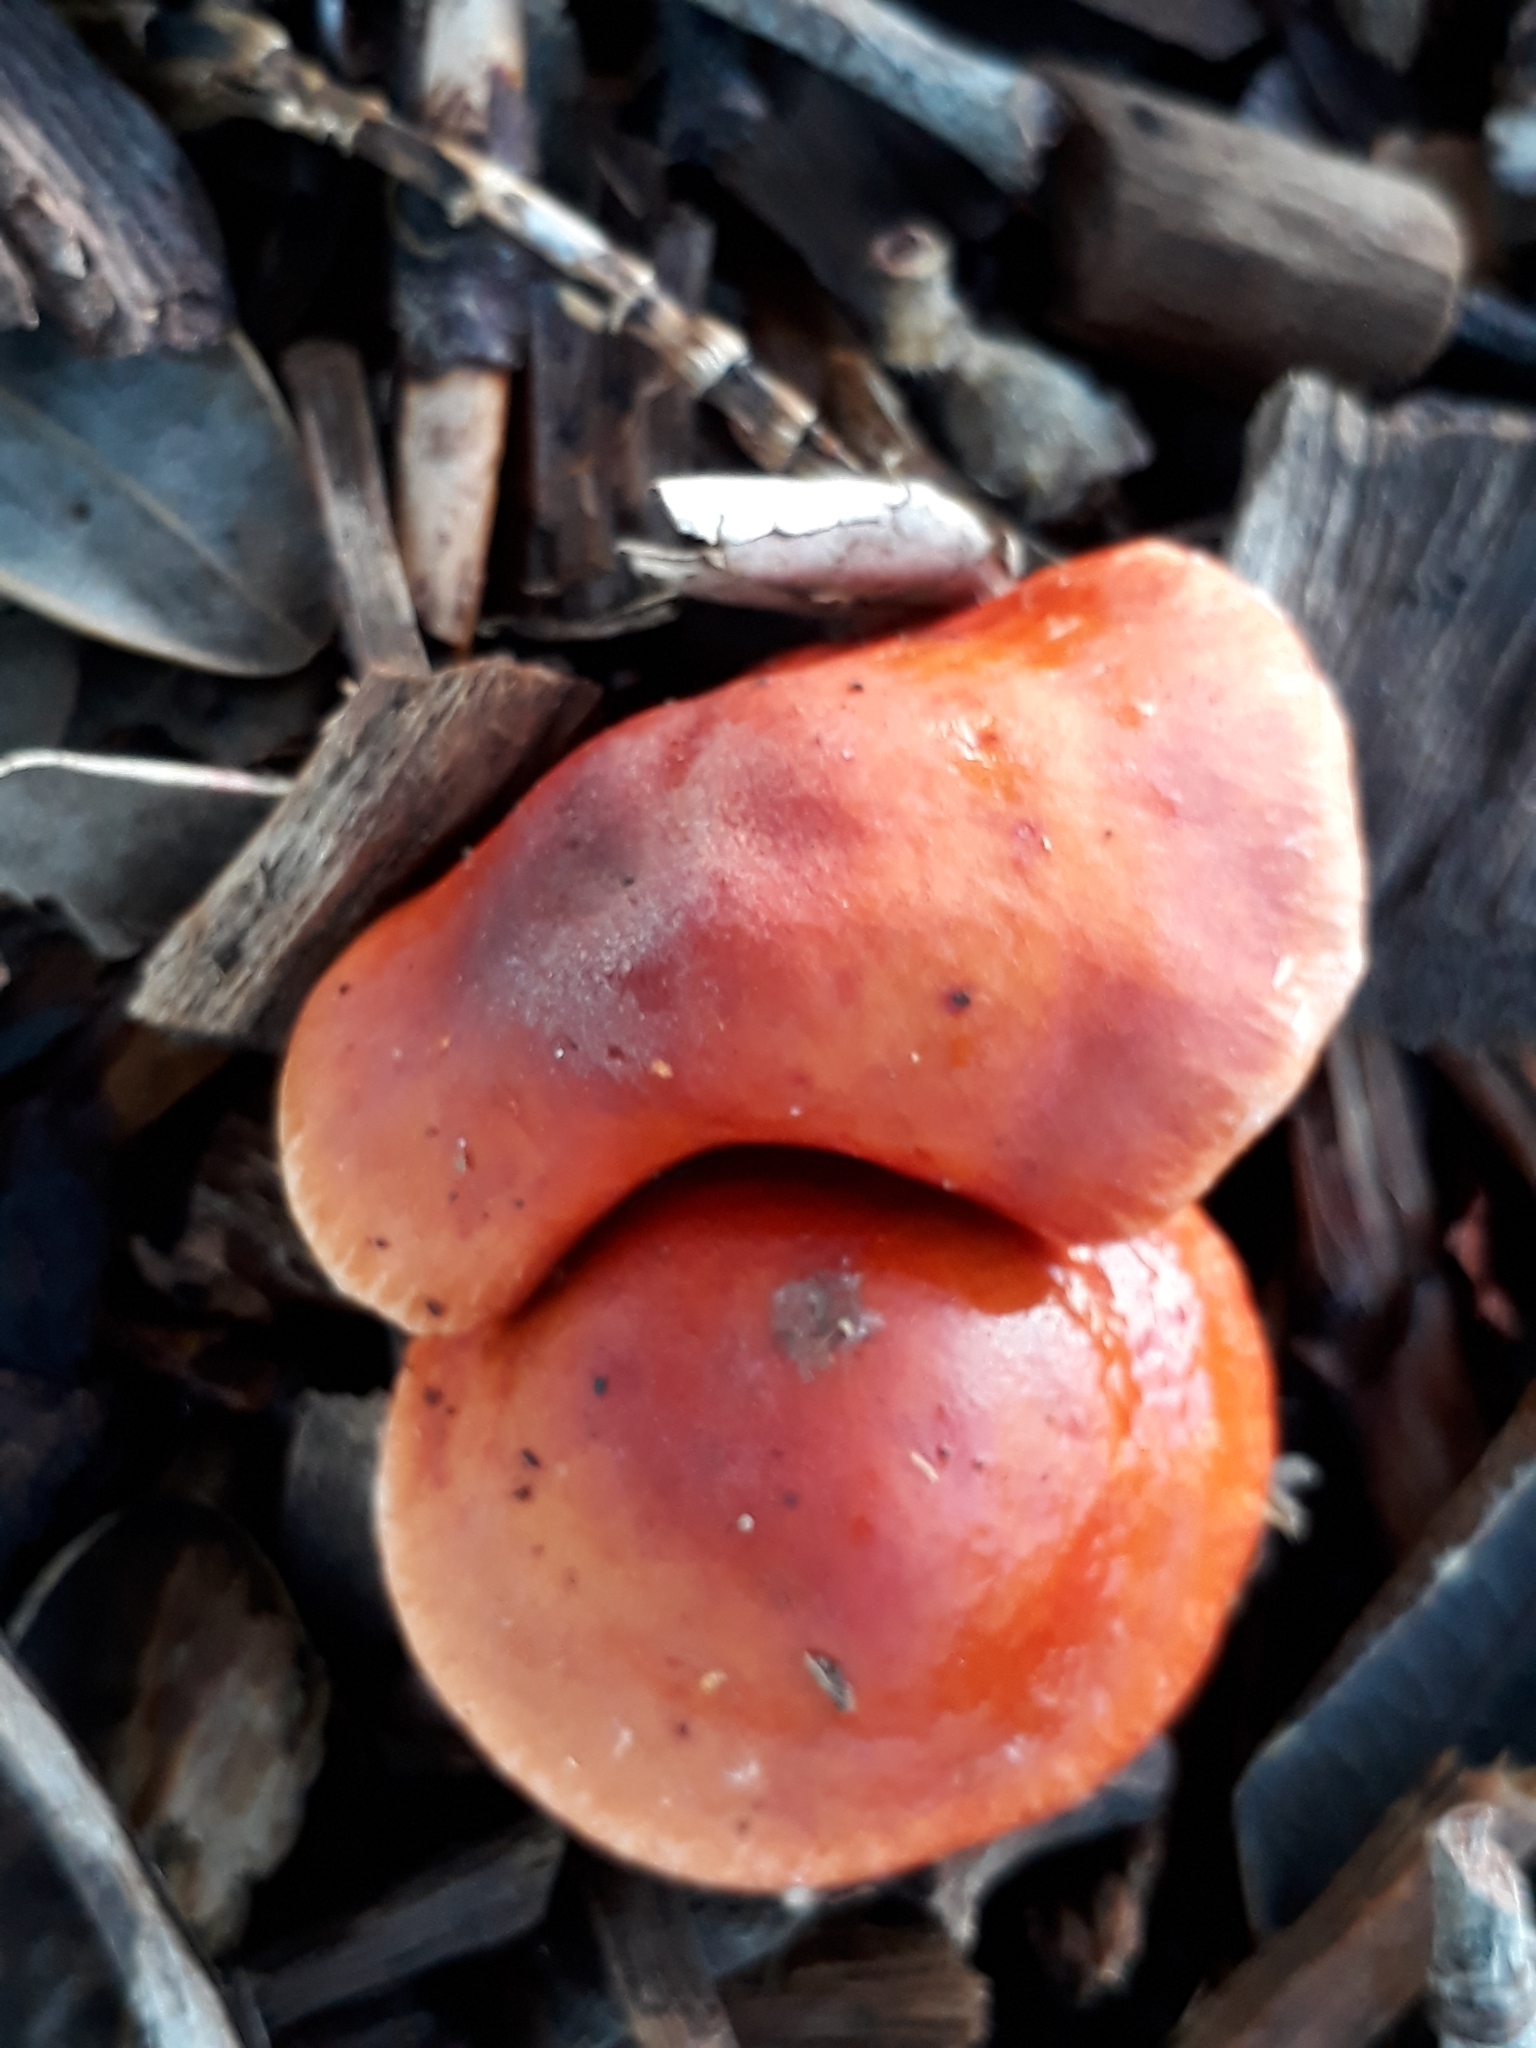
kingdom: Fungi
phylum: Basidiomycota
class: Agaricomycetes
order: Agaricales
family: Strophariaceae
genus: Leratiomyces
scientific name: Leratiomyces ceres
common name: Redlead roundhead
